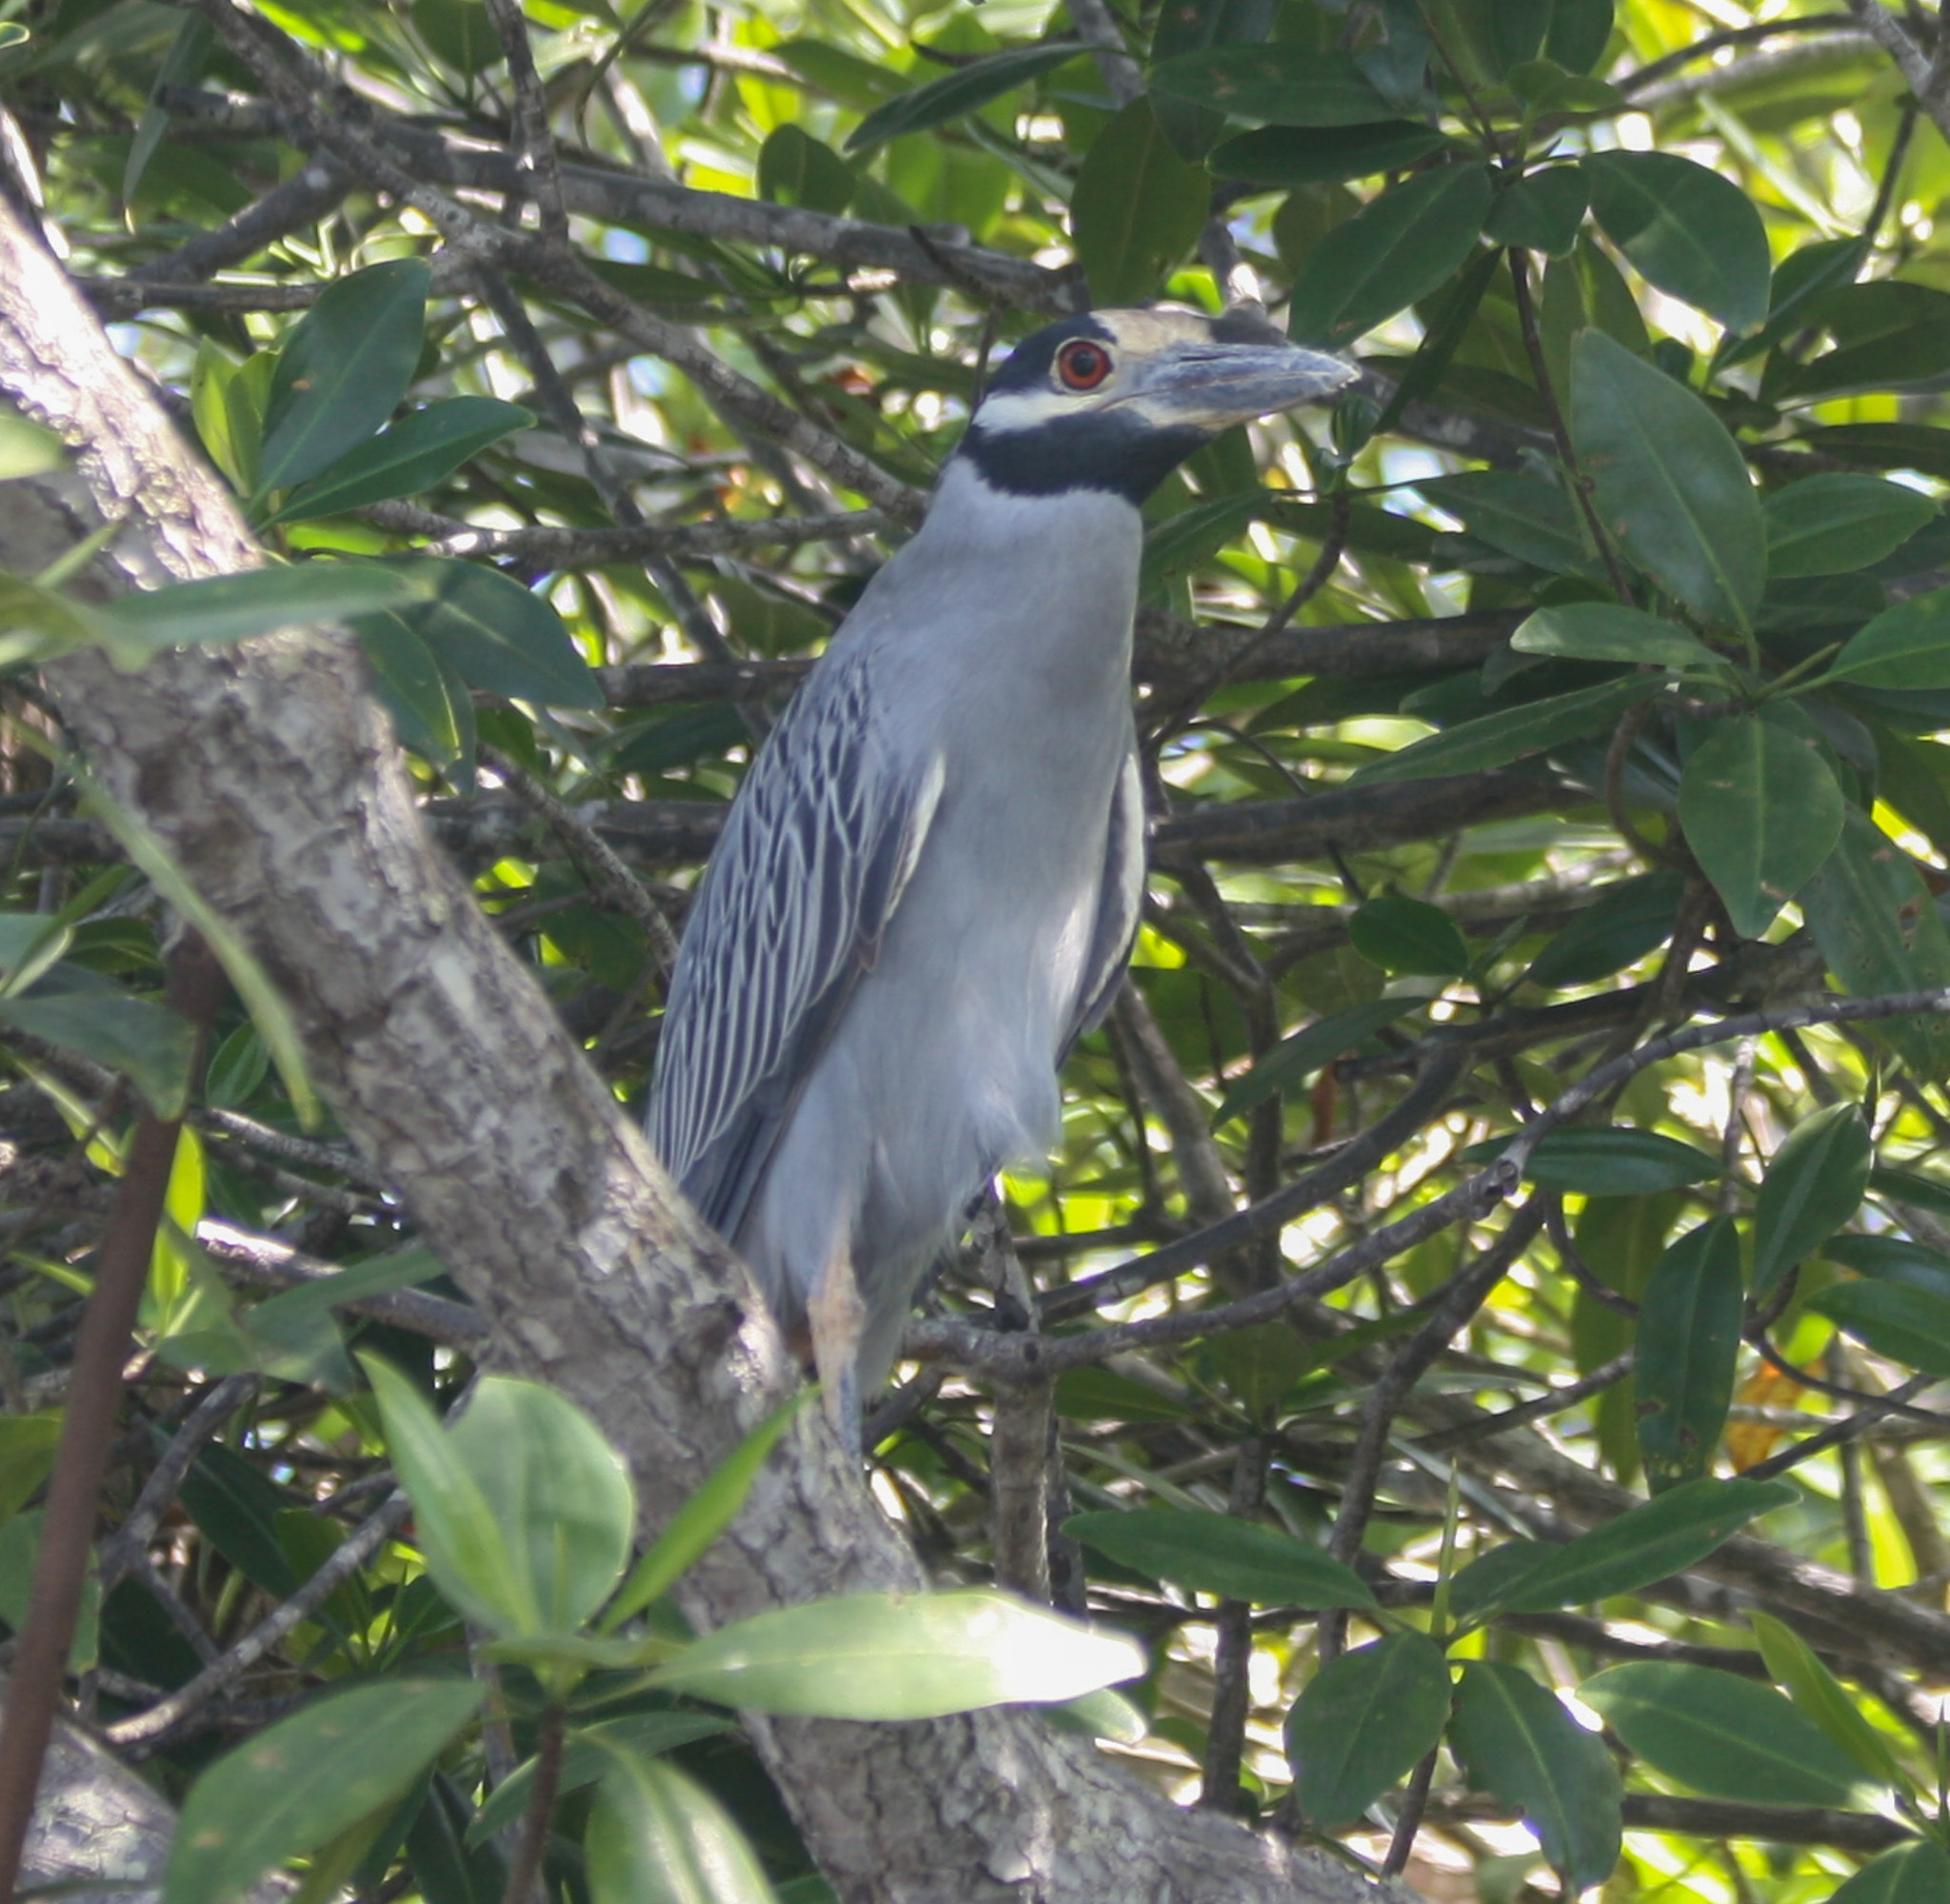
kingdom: Animalia
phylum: Chordata
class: Aves
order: Pelecaniformes
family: Ardeidae
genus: Nyctanassa
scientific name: Nyctanassa violacea
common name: Yellow-crowned night heron
